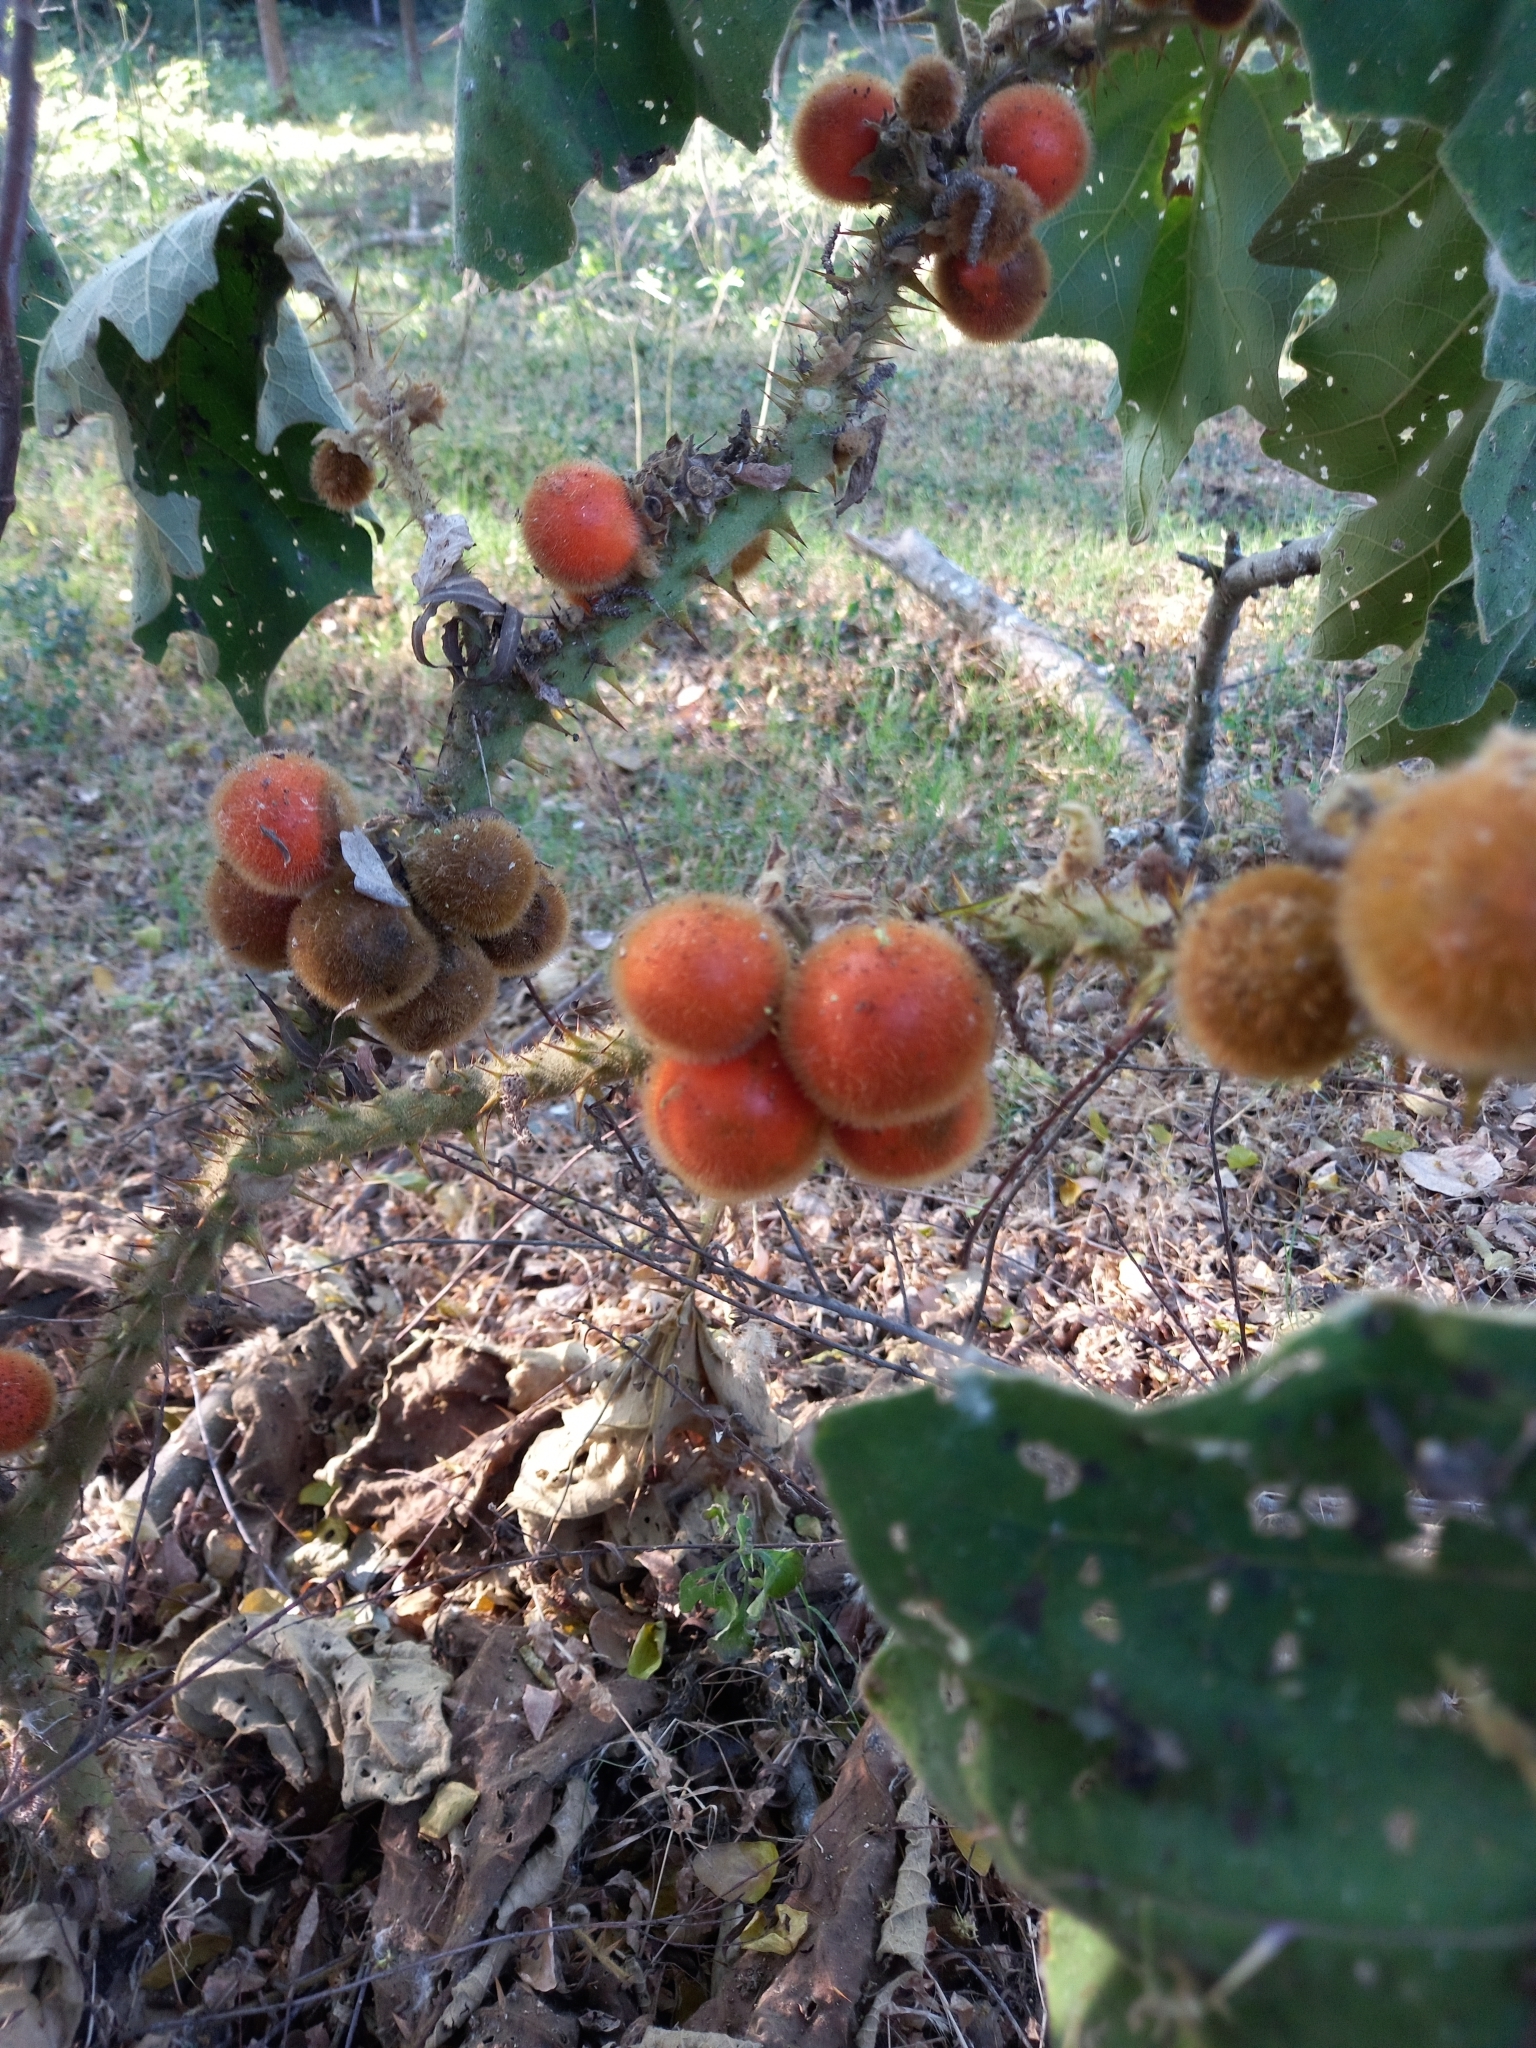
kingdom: Plantae
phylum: Tracheophyta
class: Magnoliopsida
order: Solanales
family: Solanaceae
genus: Solanum
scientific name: Solanum candidum
